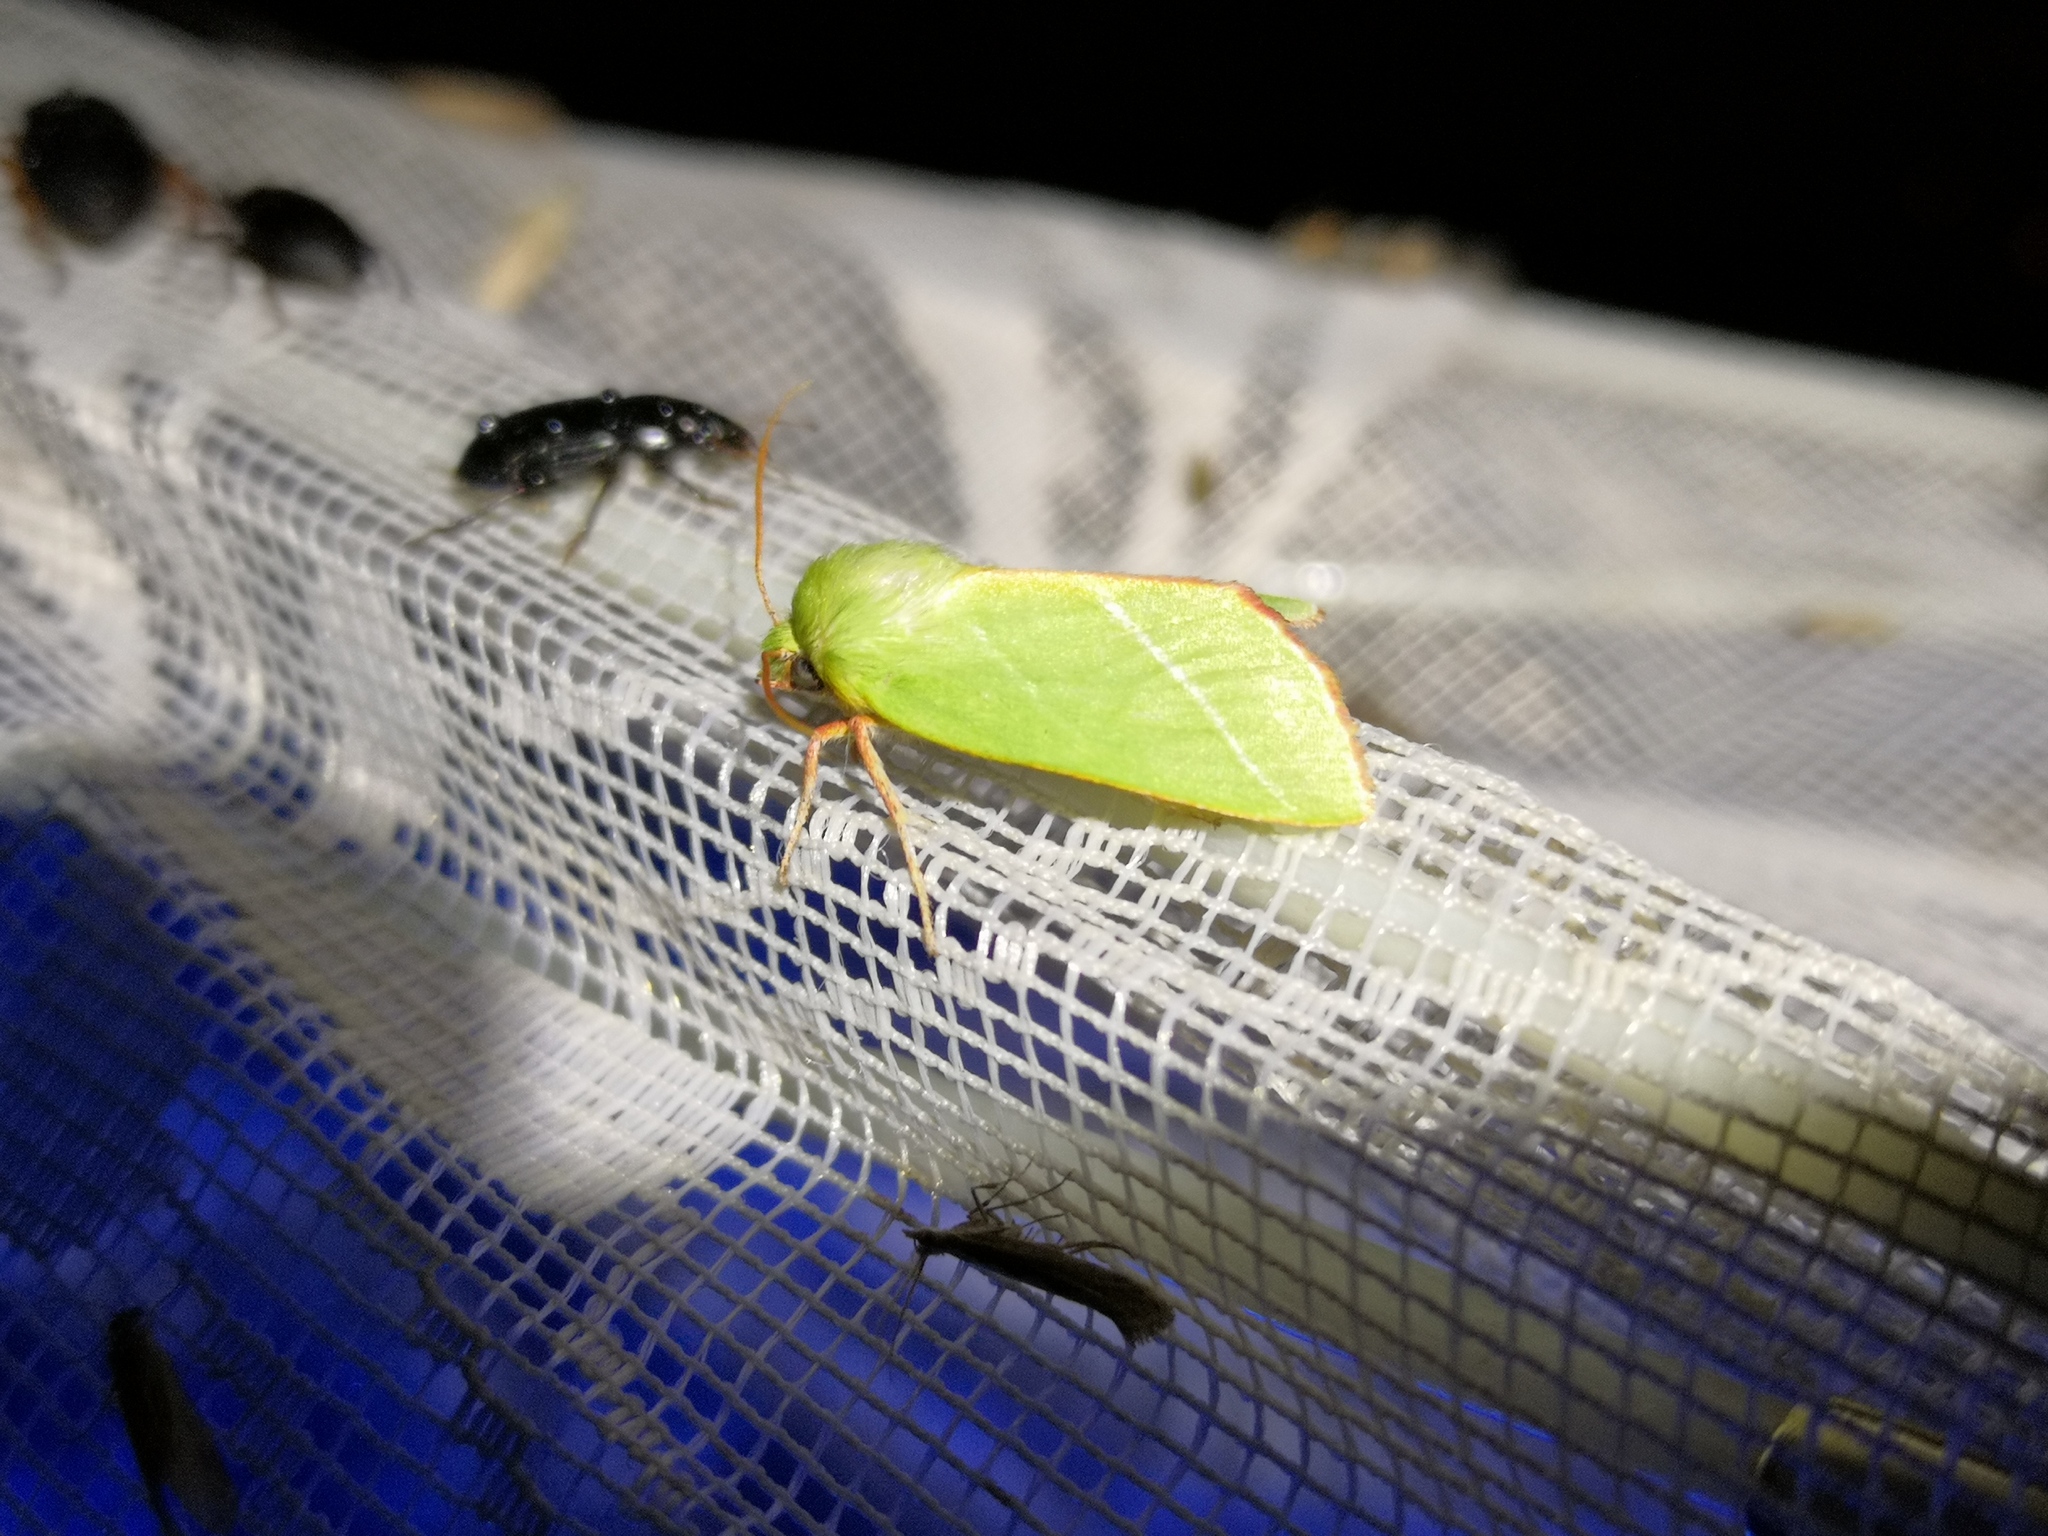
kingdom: Animalia
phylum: Arthropoda
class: Insecta
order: Lepidoptera
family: Nolidae
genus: Pseudoips
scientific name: Pseudoips prasinana
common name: Green silver-lines
